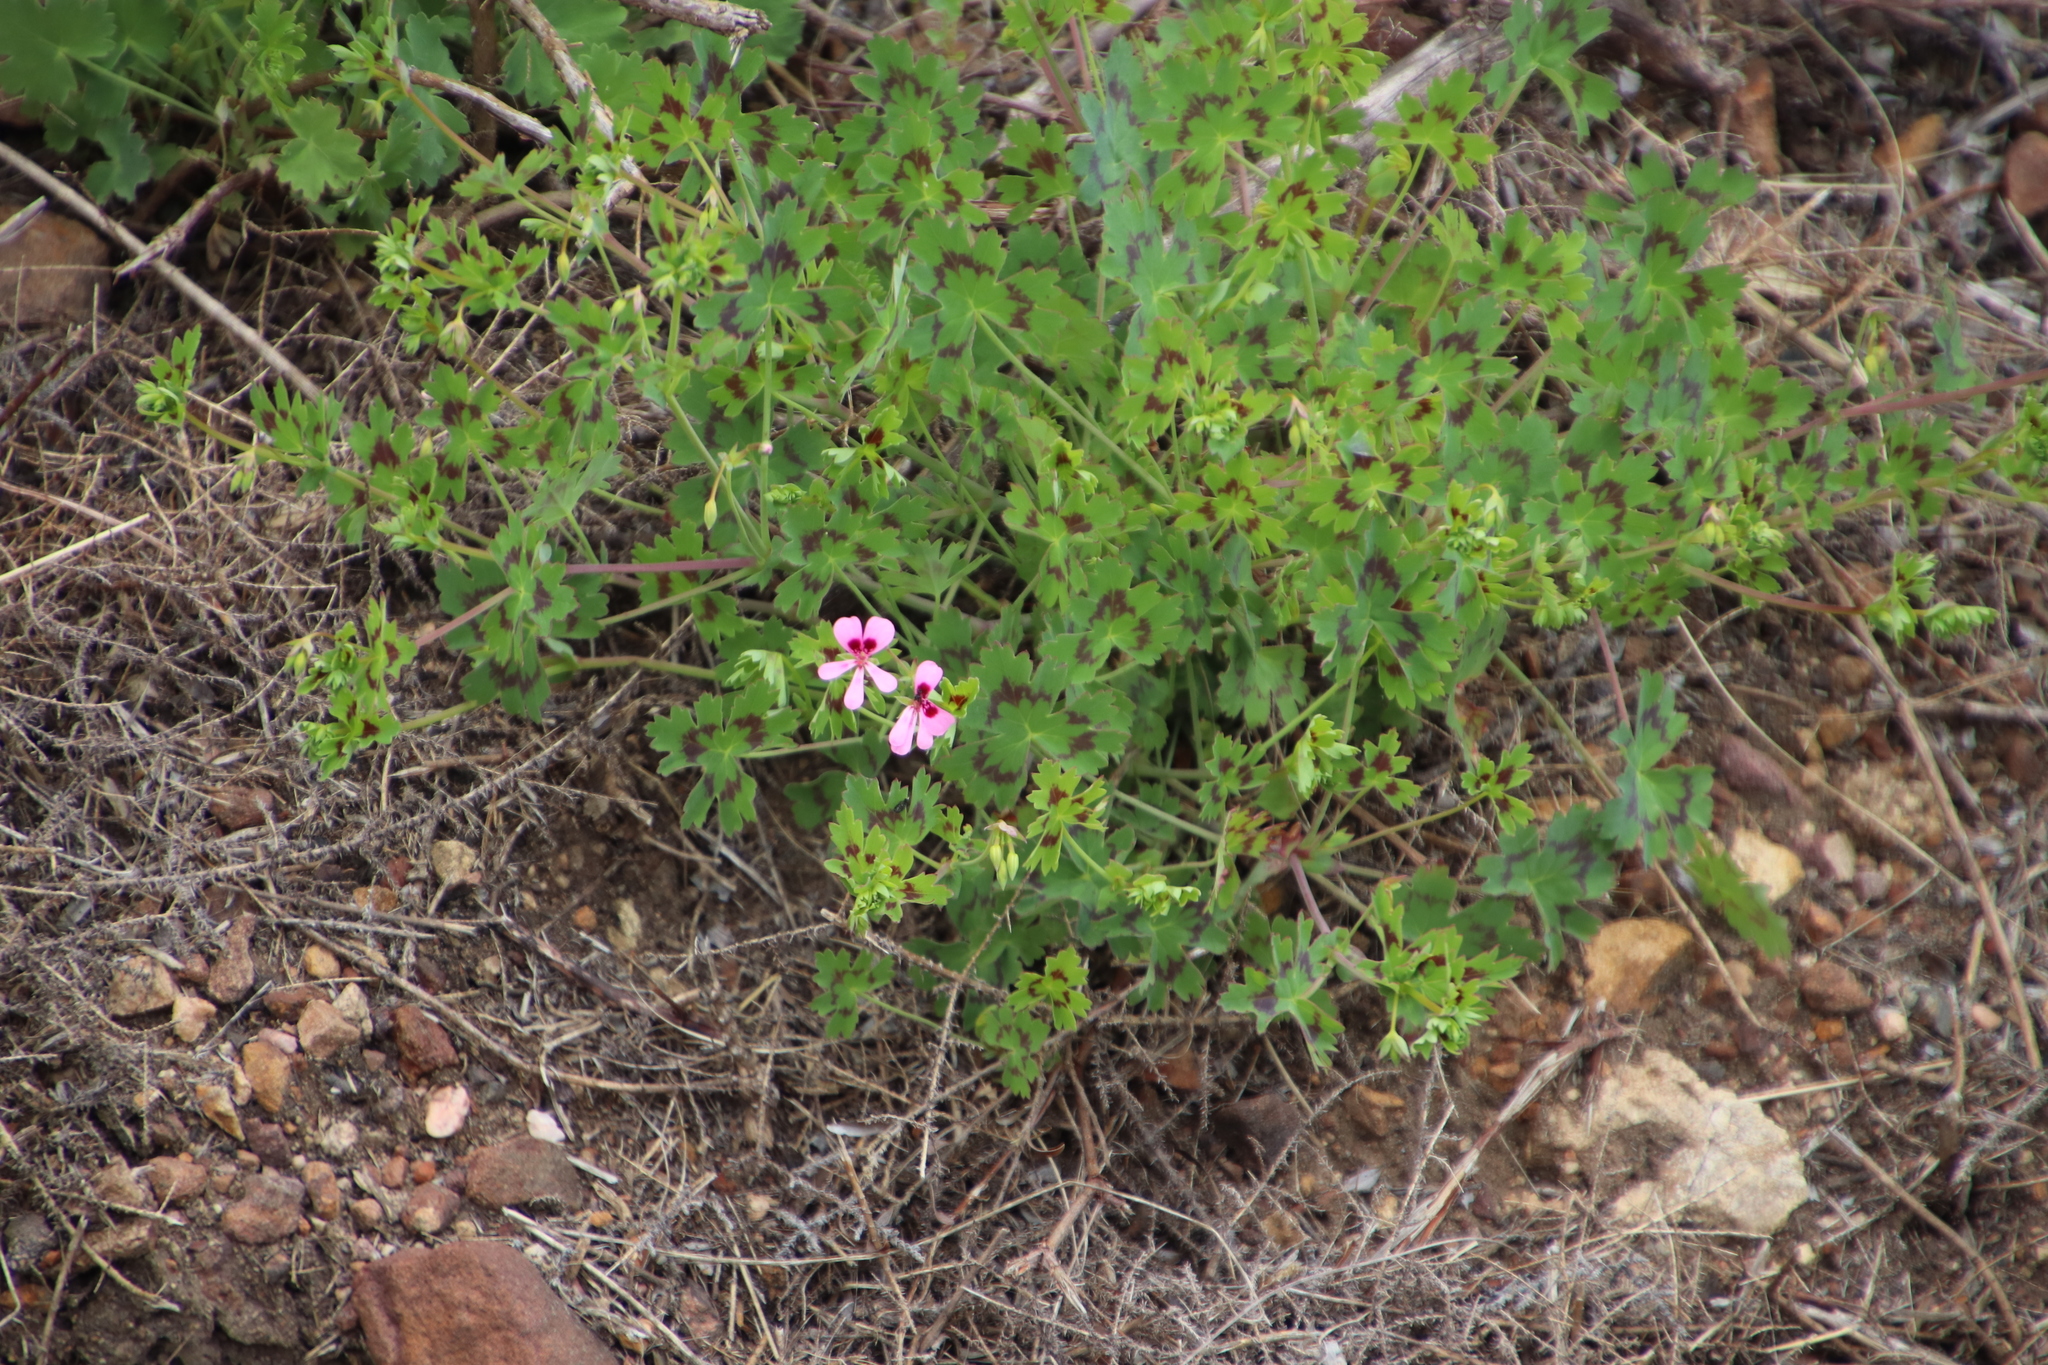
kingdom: Plantae
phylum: Tracheophyta
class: Magnoliopsida
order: Geraniales
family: Geraniaceae
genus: Pelargonium
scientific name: Pelargonium patulum
